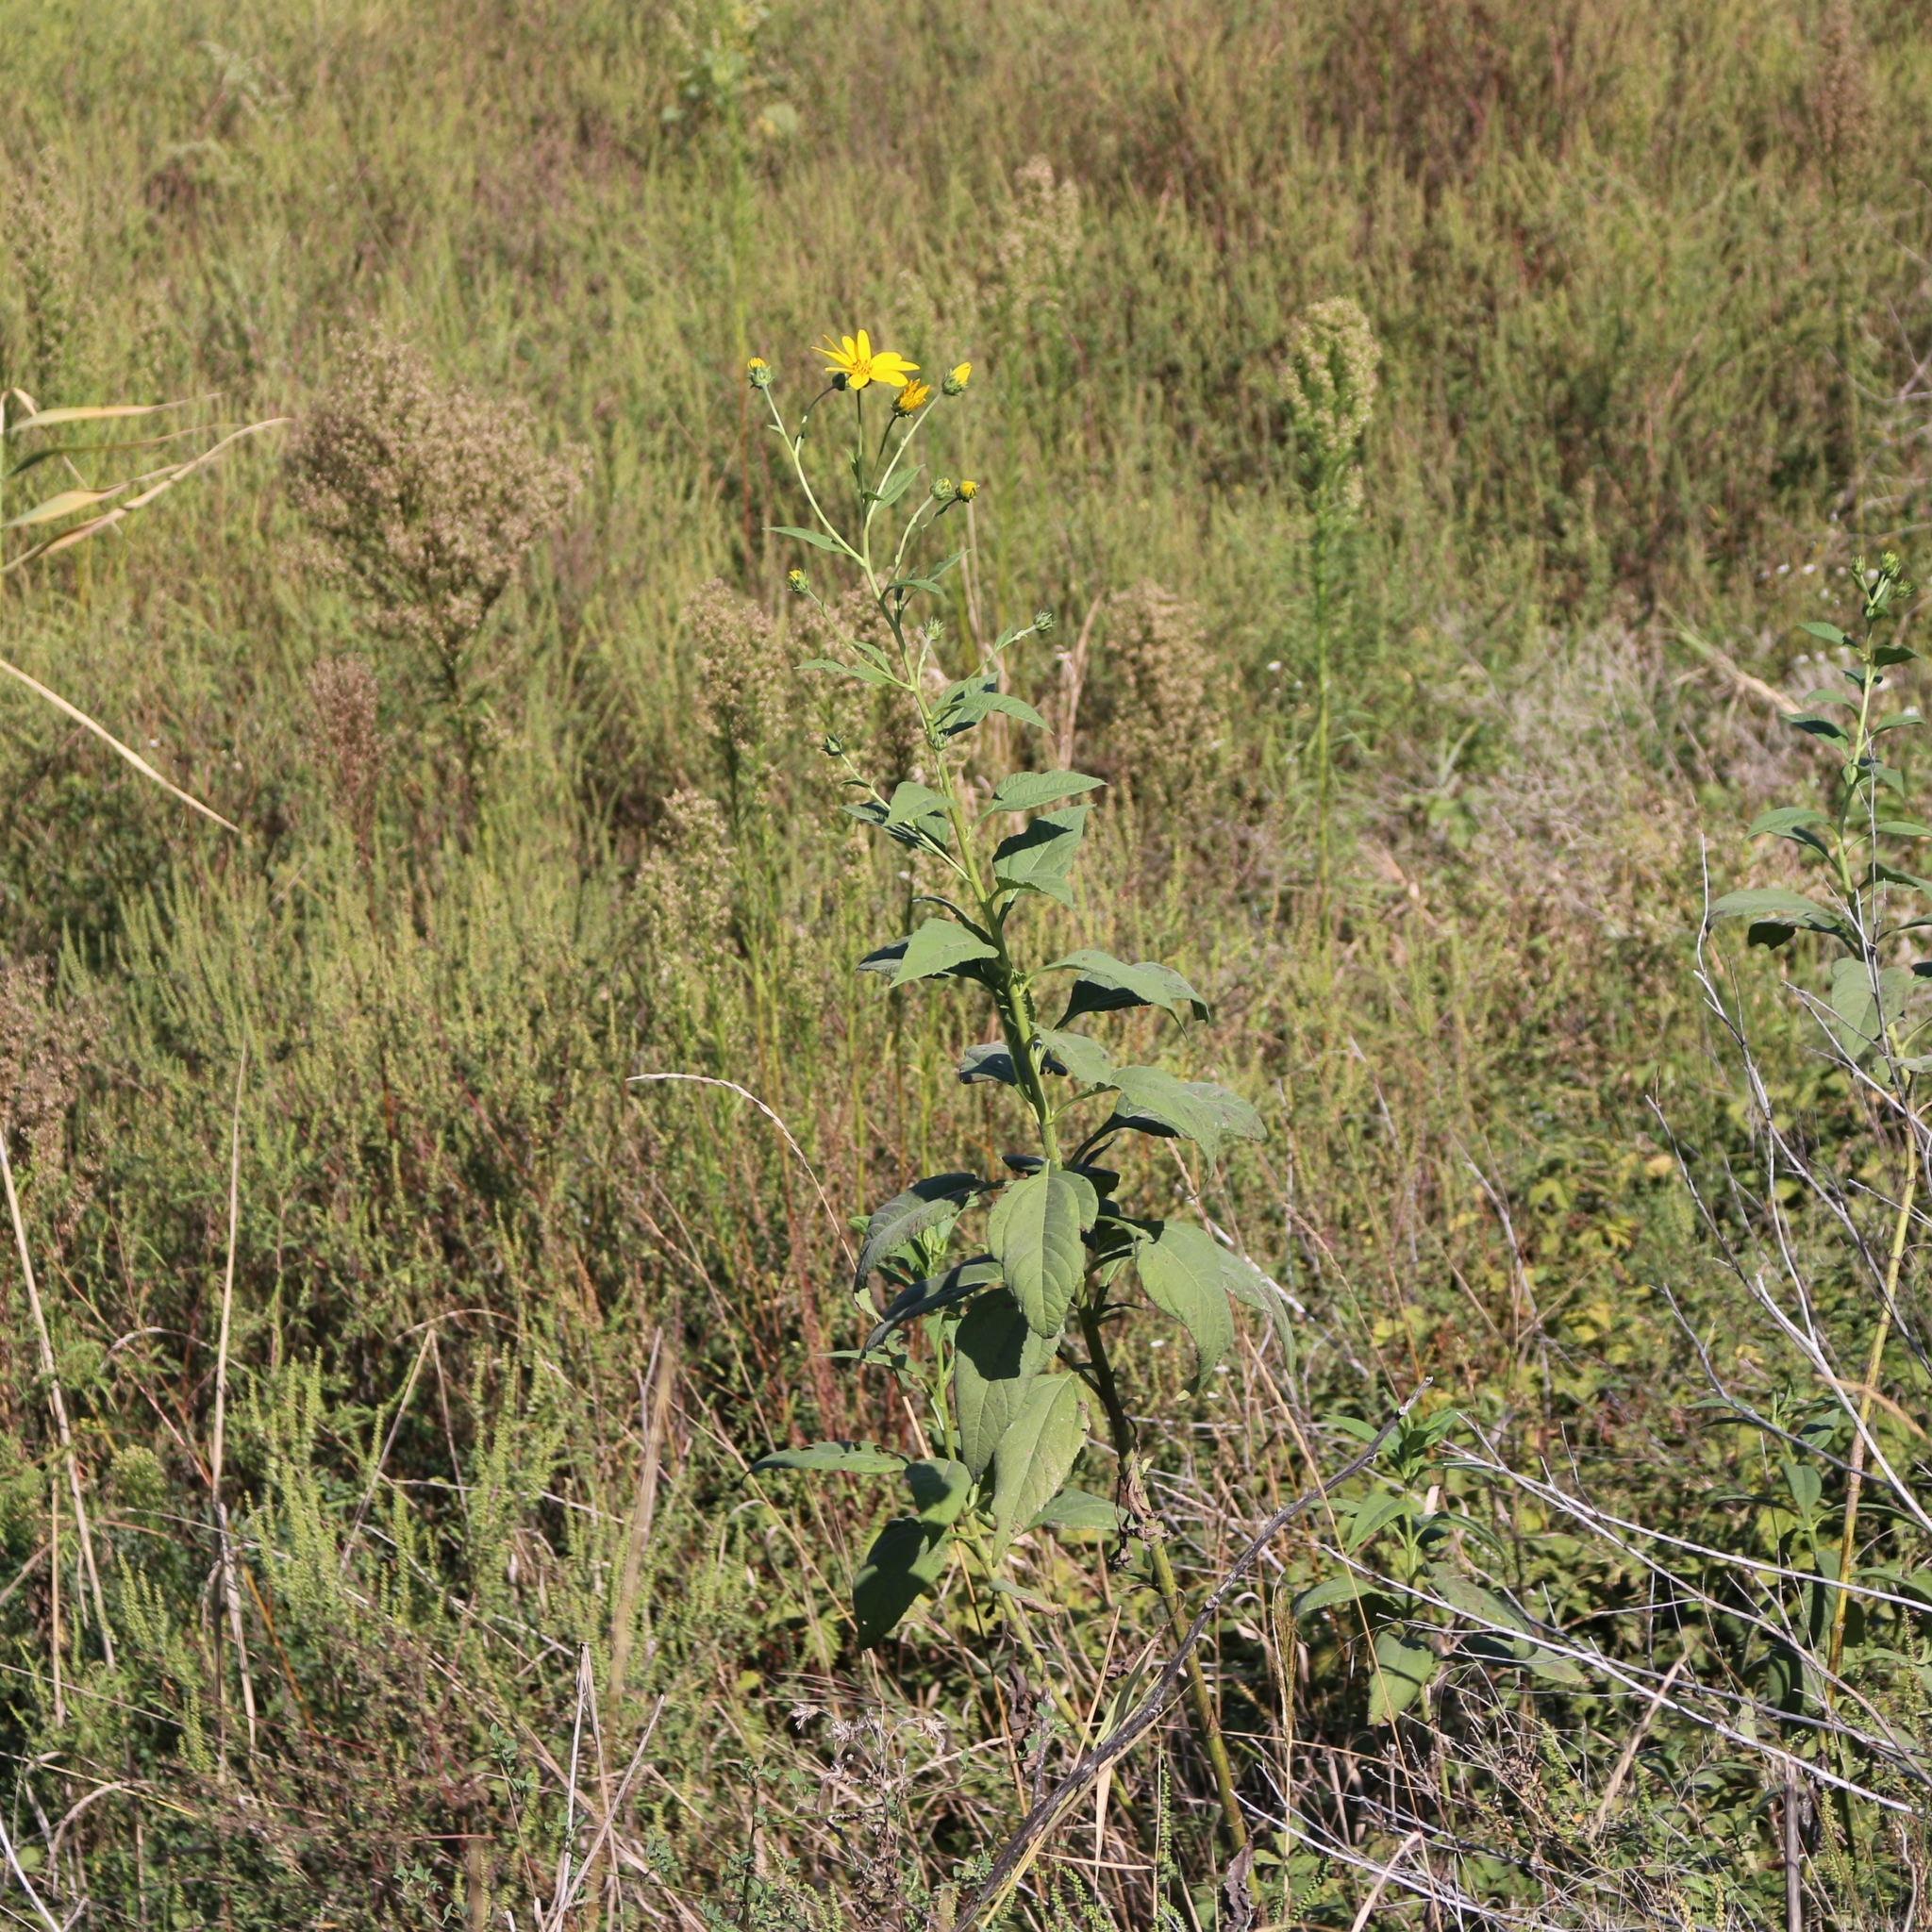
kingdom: Plantae
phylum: Tracheophyta
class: Magnoliopsida
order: Asterales
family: Asteraceae
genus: Helianthus
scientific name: Helianthus tuberosus
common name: Jerusalem artichoke
